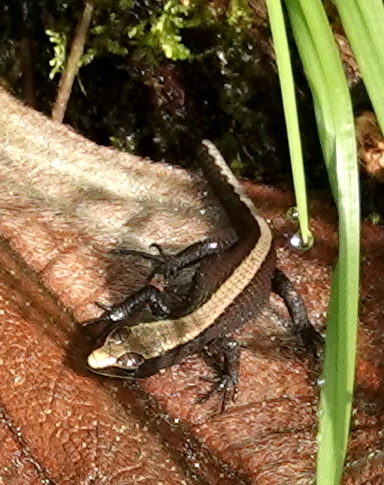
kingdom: Animalia
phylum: Chordata
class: Squamata
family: Gymnophthalmidae
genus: Pholidobolus
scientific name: Pholidobolus vertebralis
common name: Brown prionodactylus
